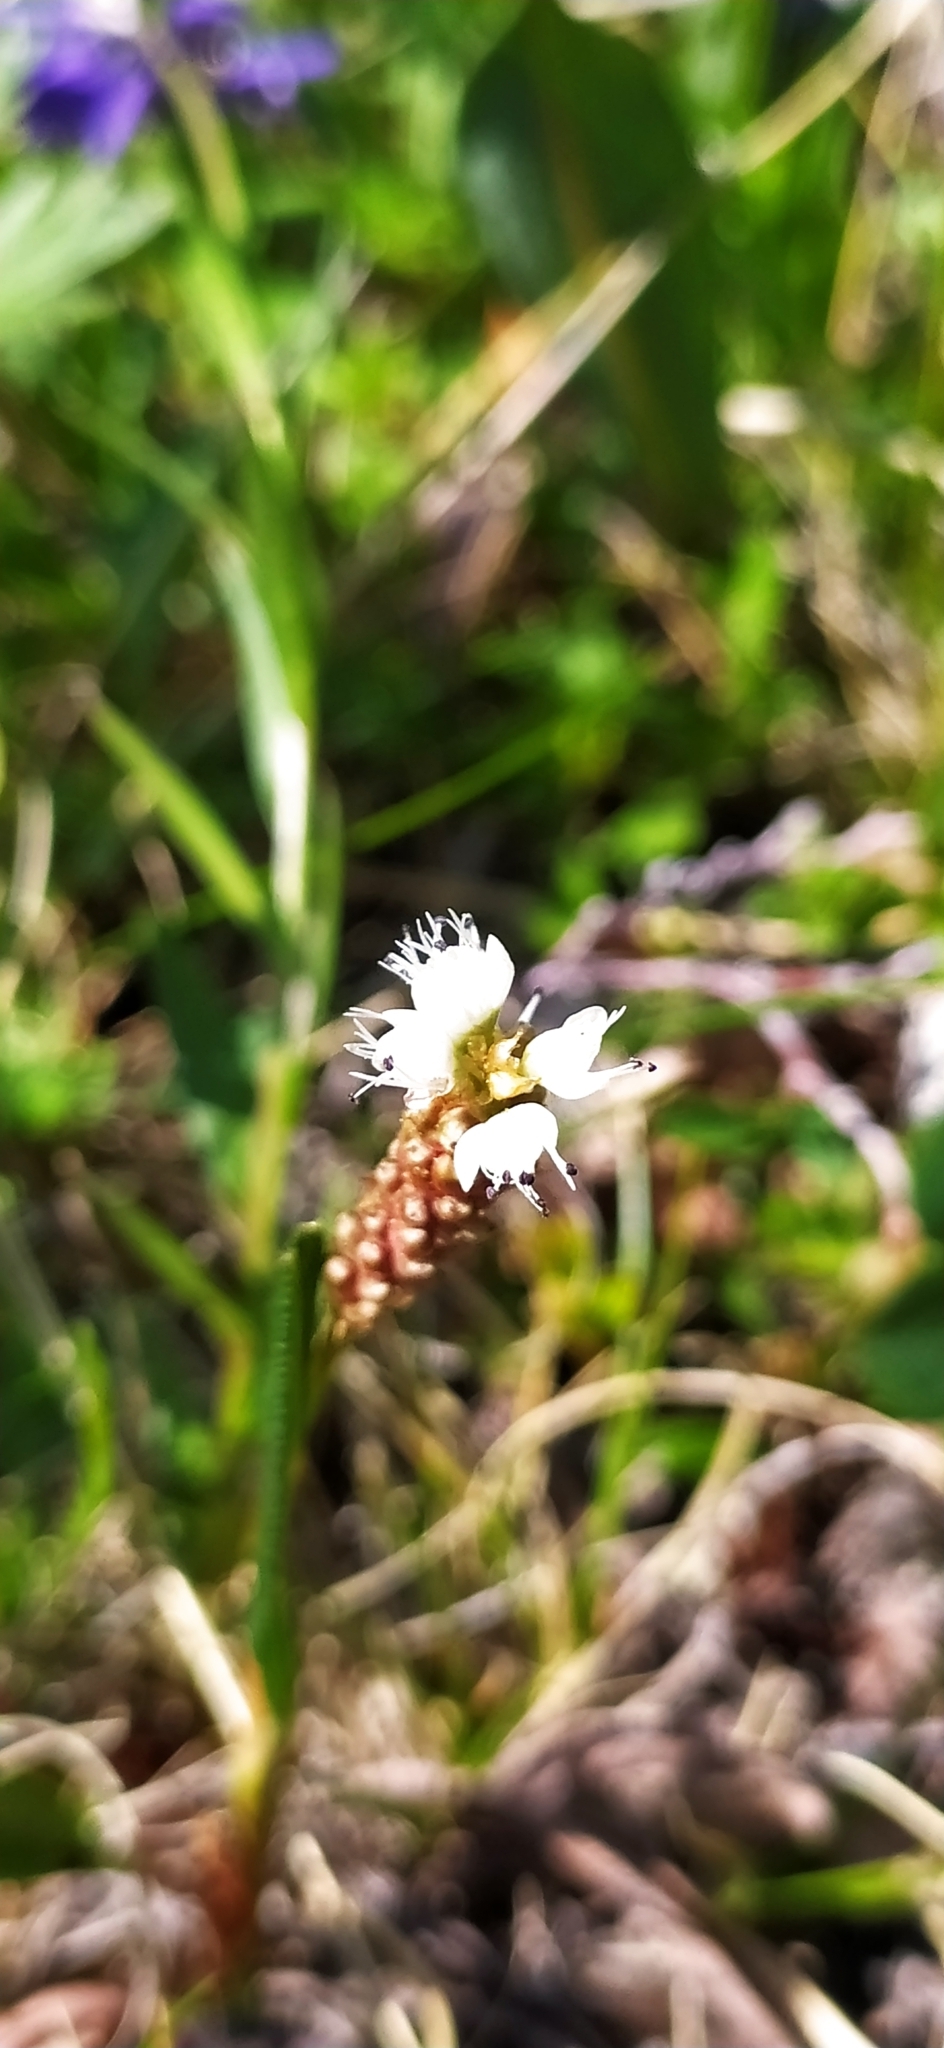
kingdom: Plantae
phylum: Tracheophyta
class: Magnoliopsida
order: Caryophyllales
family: Polygonaceae
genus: Bistorta
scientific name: Bistorta vivipara
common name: Alpine bistort
